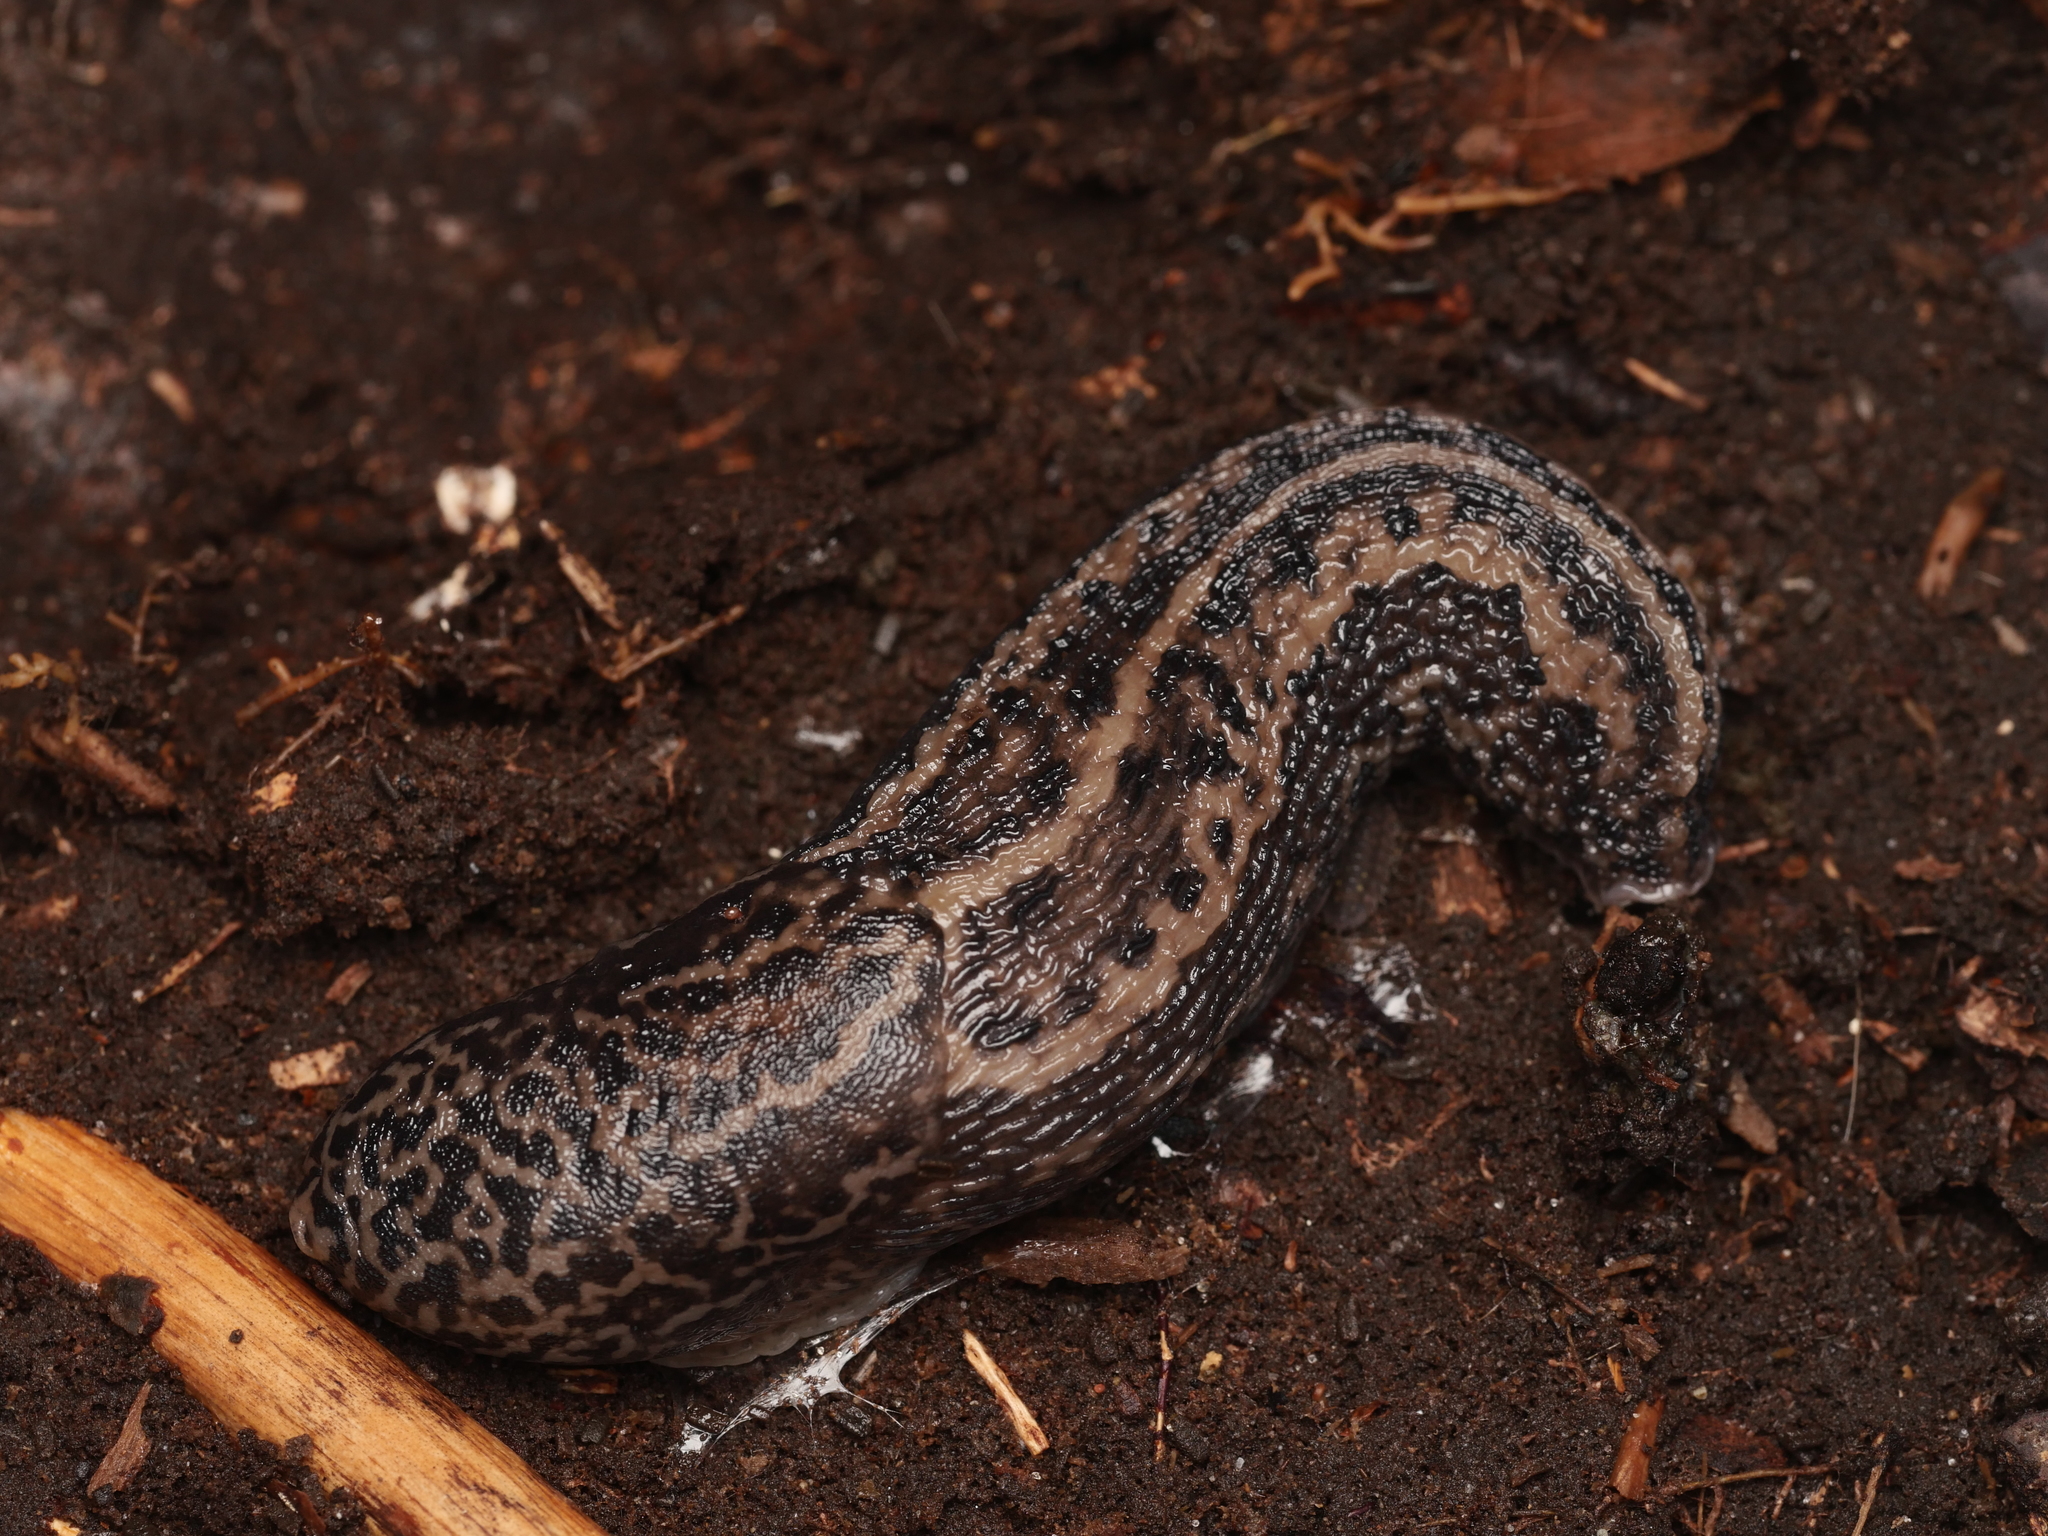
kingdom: Animalia
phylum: Mollusca
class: Gastropoda
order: Stylommatophora
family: Limacidae
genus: Limax
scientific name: Limax maximus
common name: Great grey slug
